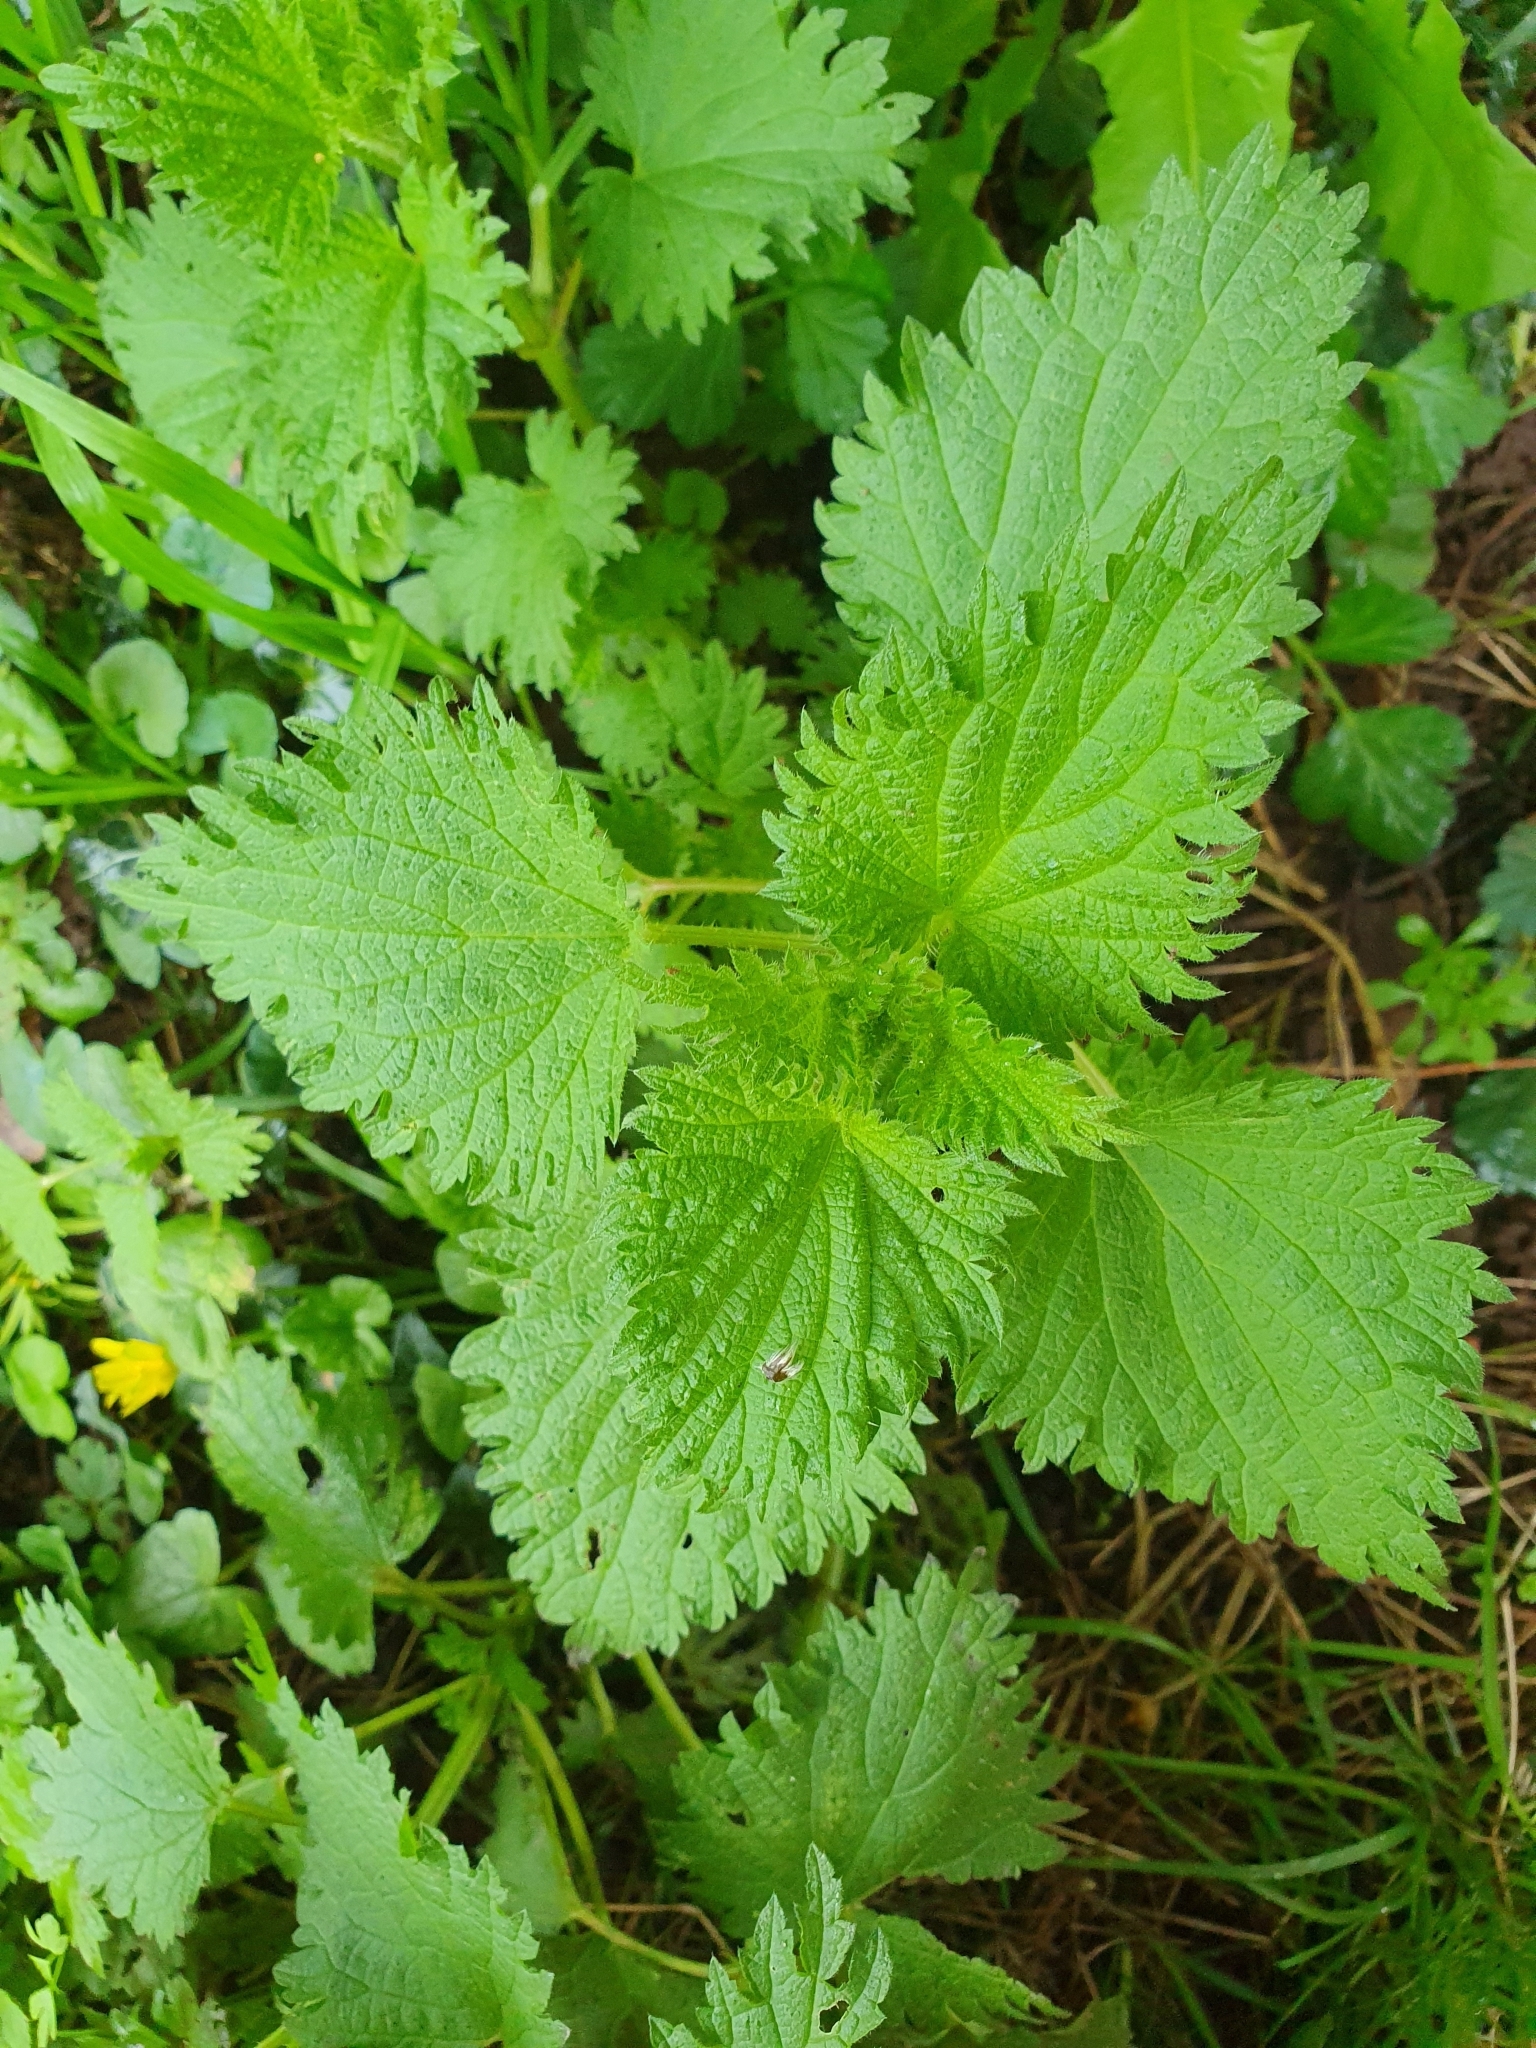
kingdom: Plantae
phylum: Tracheophyta
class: Magnoliopsida
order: Rosales
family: Urticaceae
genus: Urtica
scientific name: Urtica dioica
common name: Common nettle
